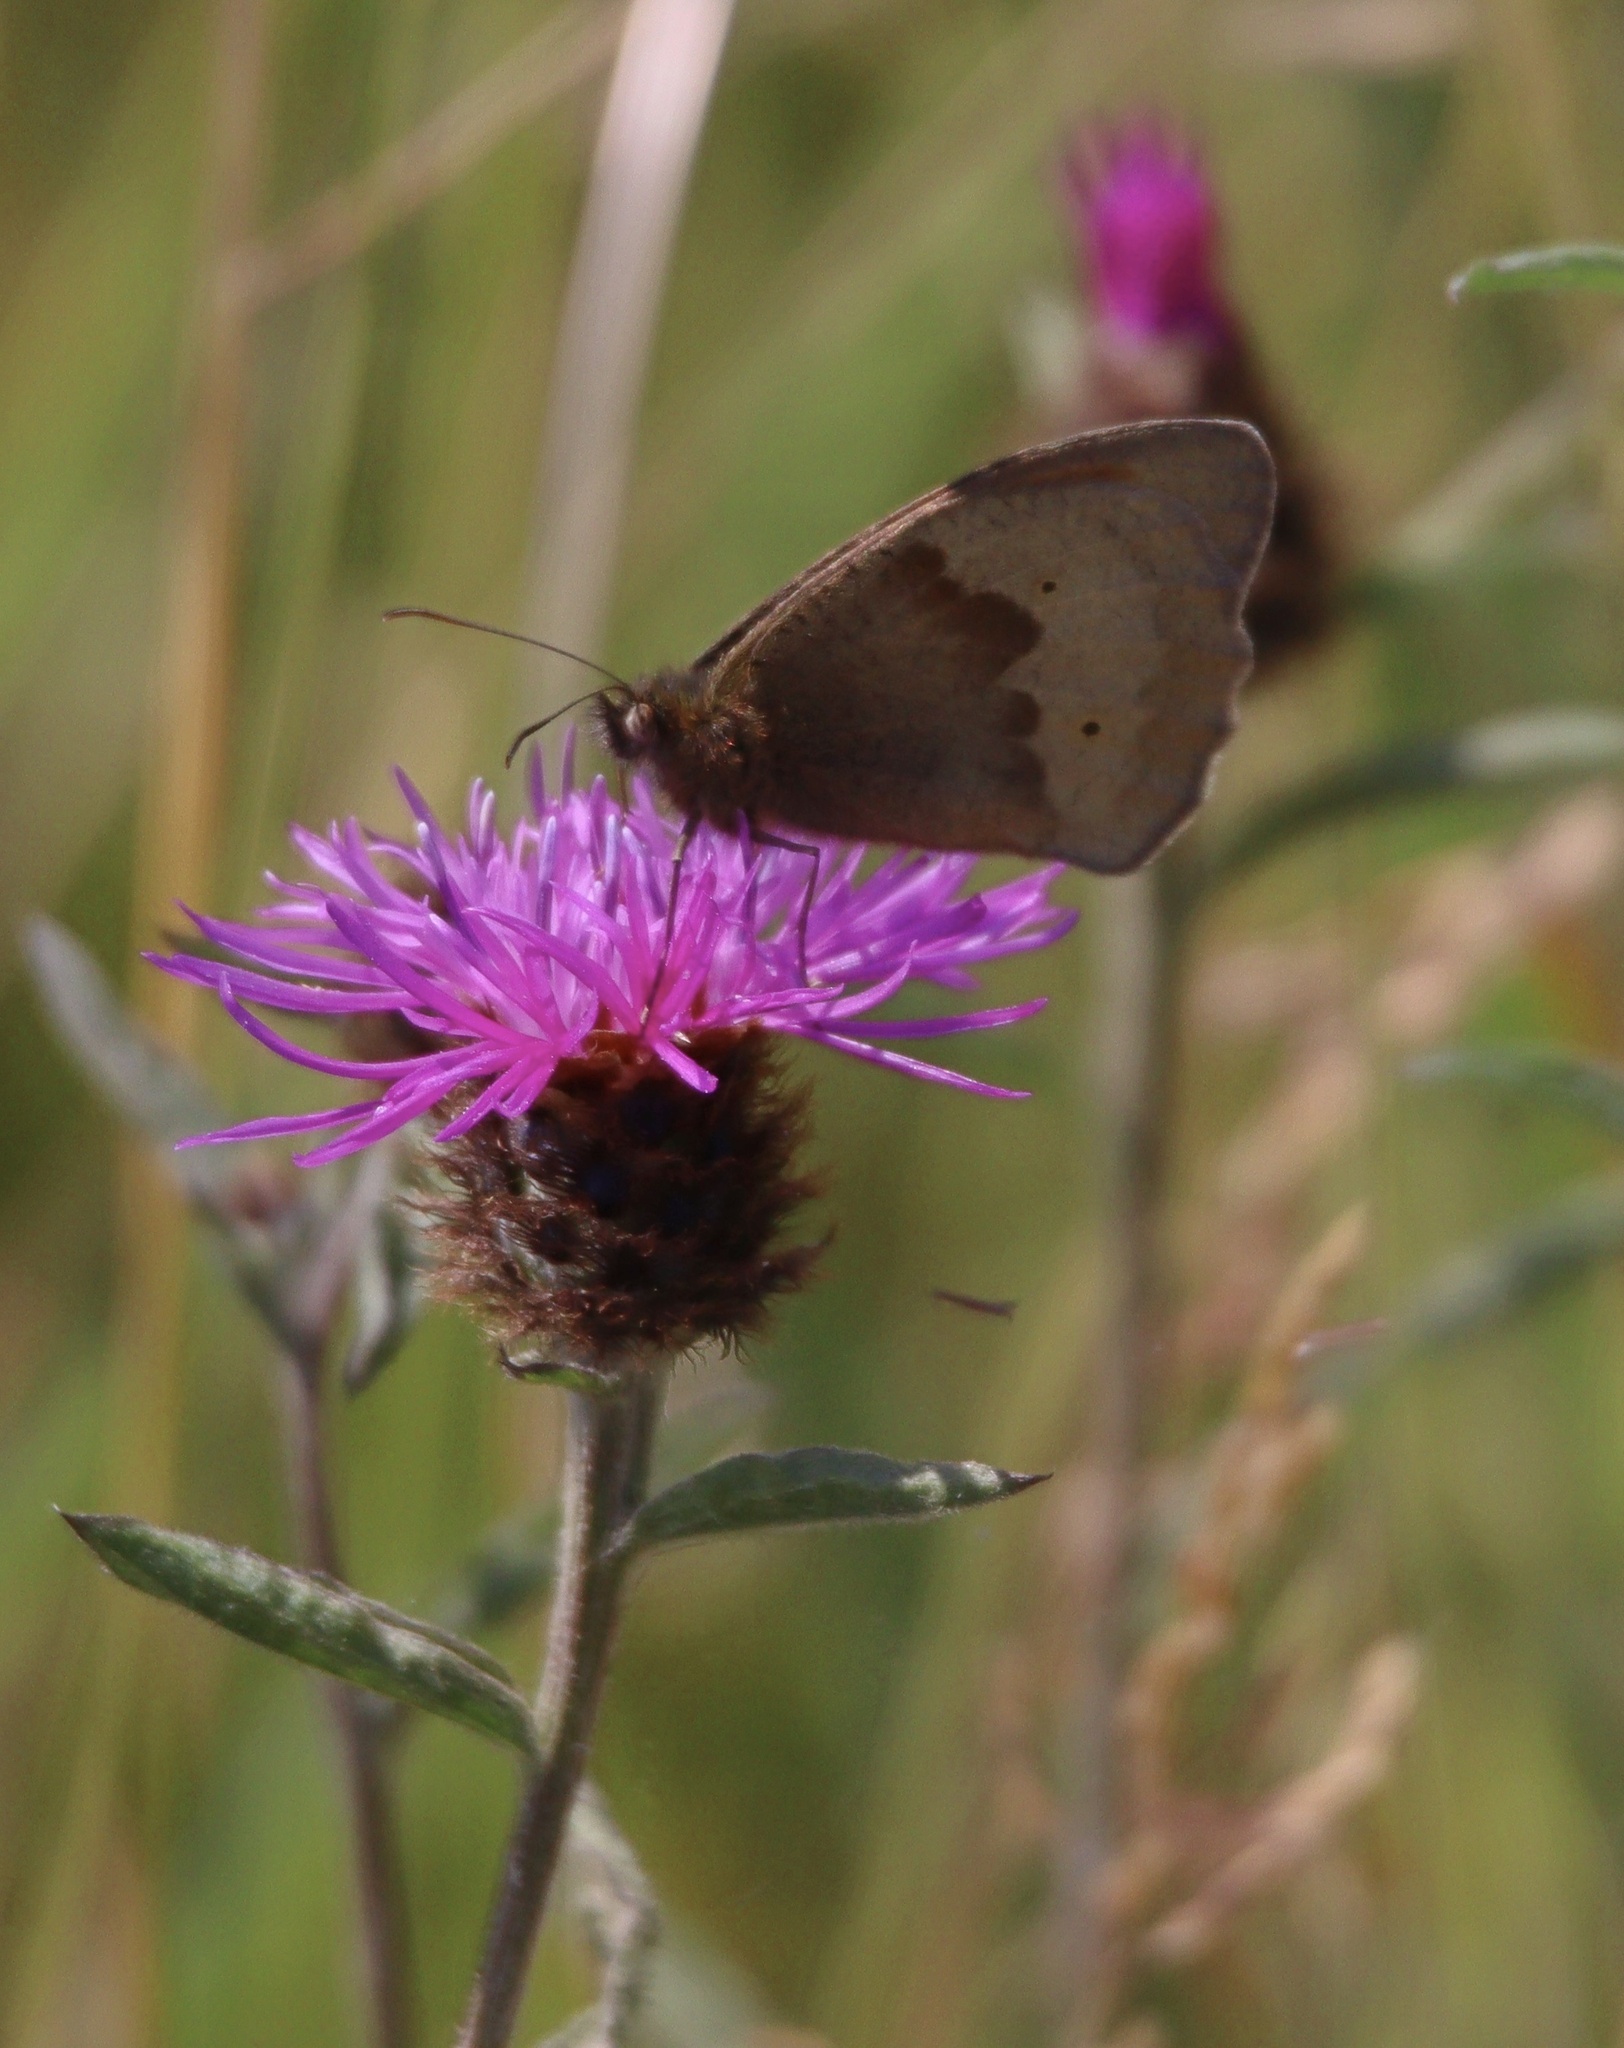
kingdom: Animalia
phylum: Arthropoda
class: Insecta
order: Lepidoptera
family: Nymphalidae
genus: Maniola
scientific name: Maniola jurtina
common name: Meadow brown
